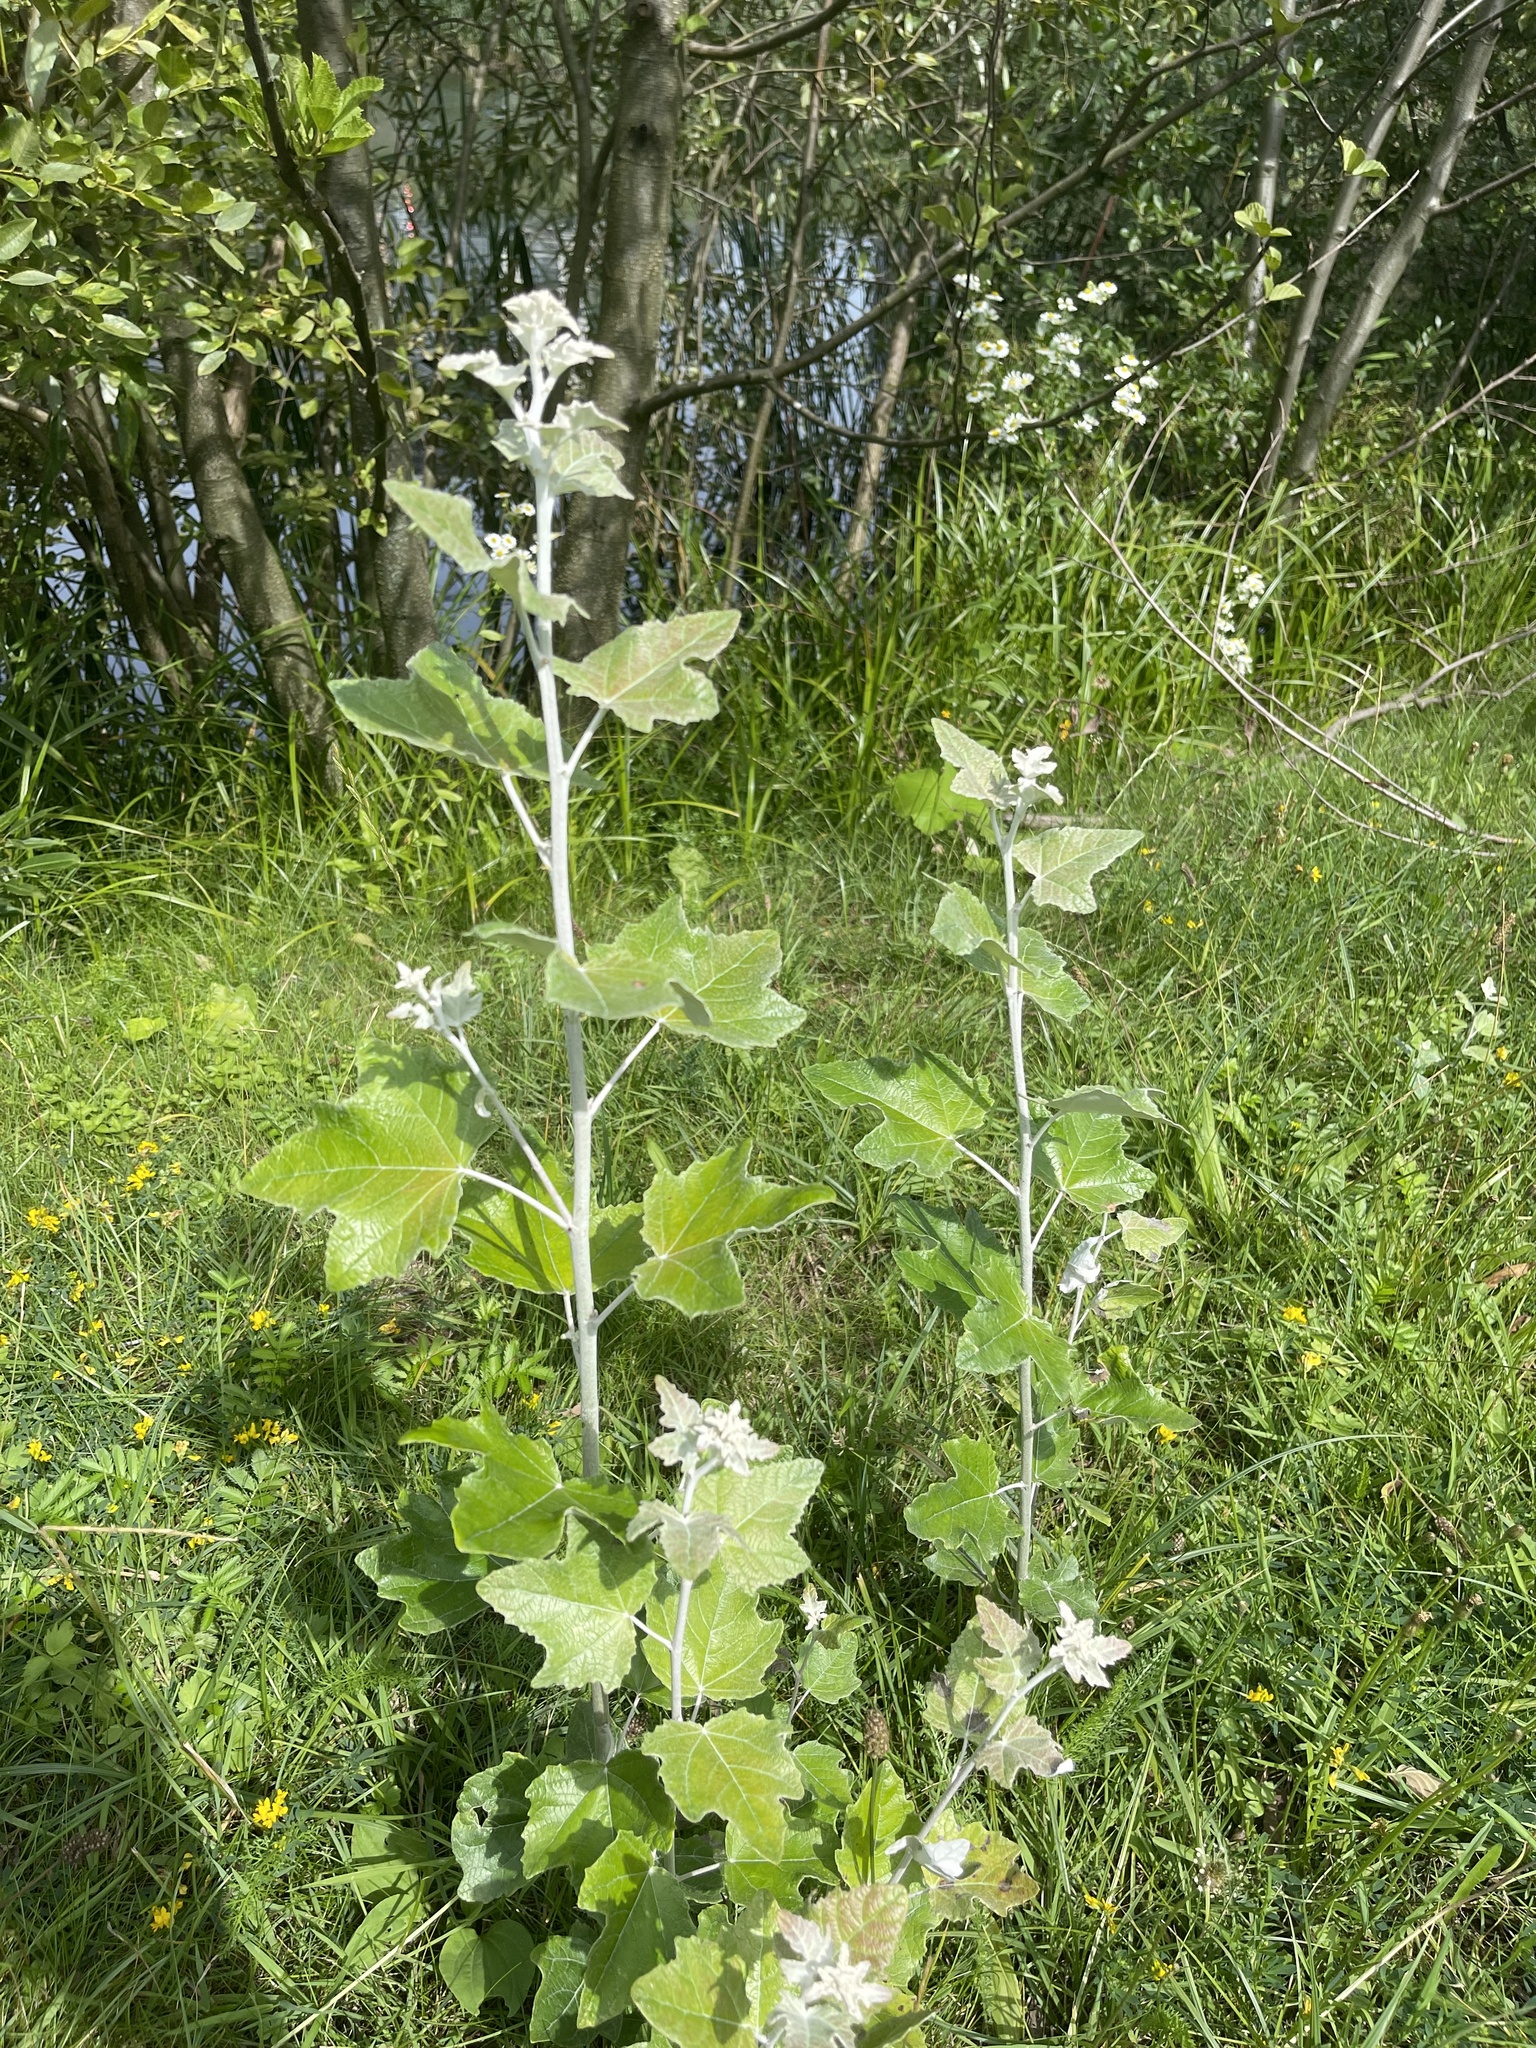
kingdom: Plantae
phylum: Tracheophyta
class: Magnoliopsida
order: Malpighiales
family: Salicaceae
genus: Populus
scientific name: Populus alba
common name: White poplar
